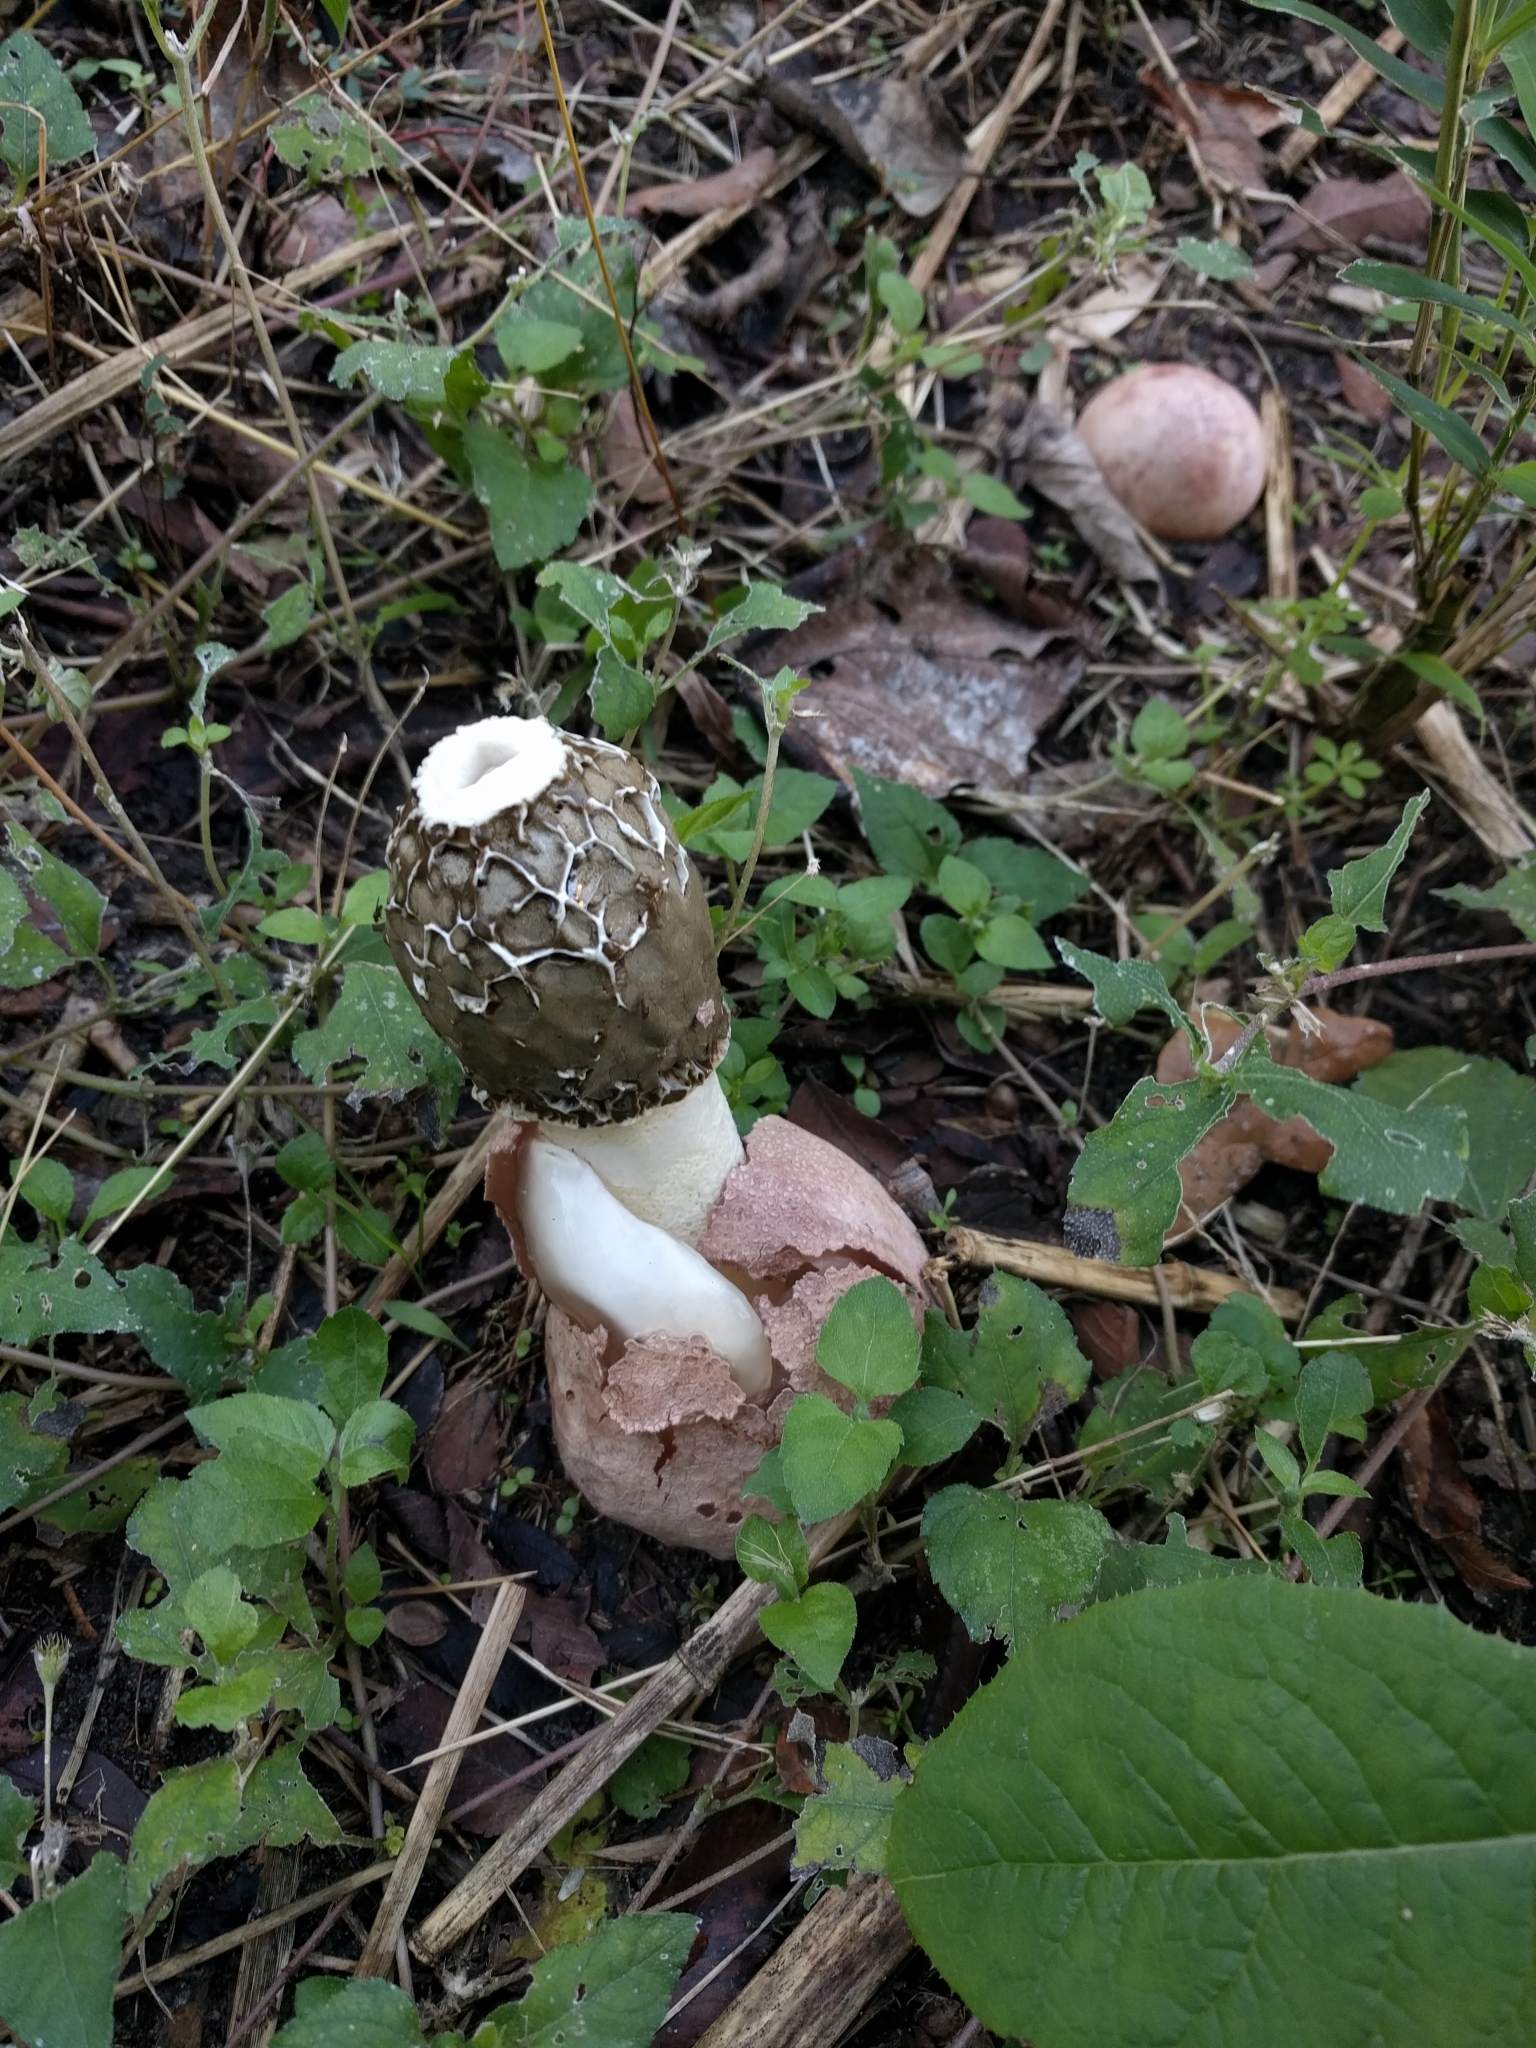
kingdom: Fungi
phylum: Basidiomycota
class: Agaricomycetes
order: Phallales
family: Phallaceae
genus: Phallus
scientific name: Phallus hadriani
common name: Sand stinkhorn
